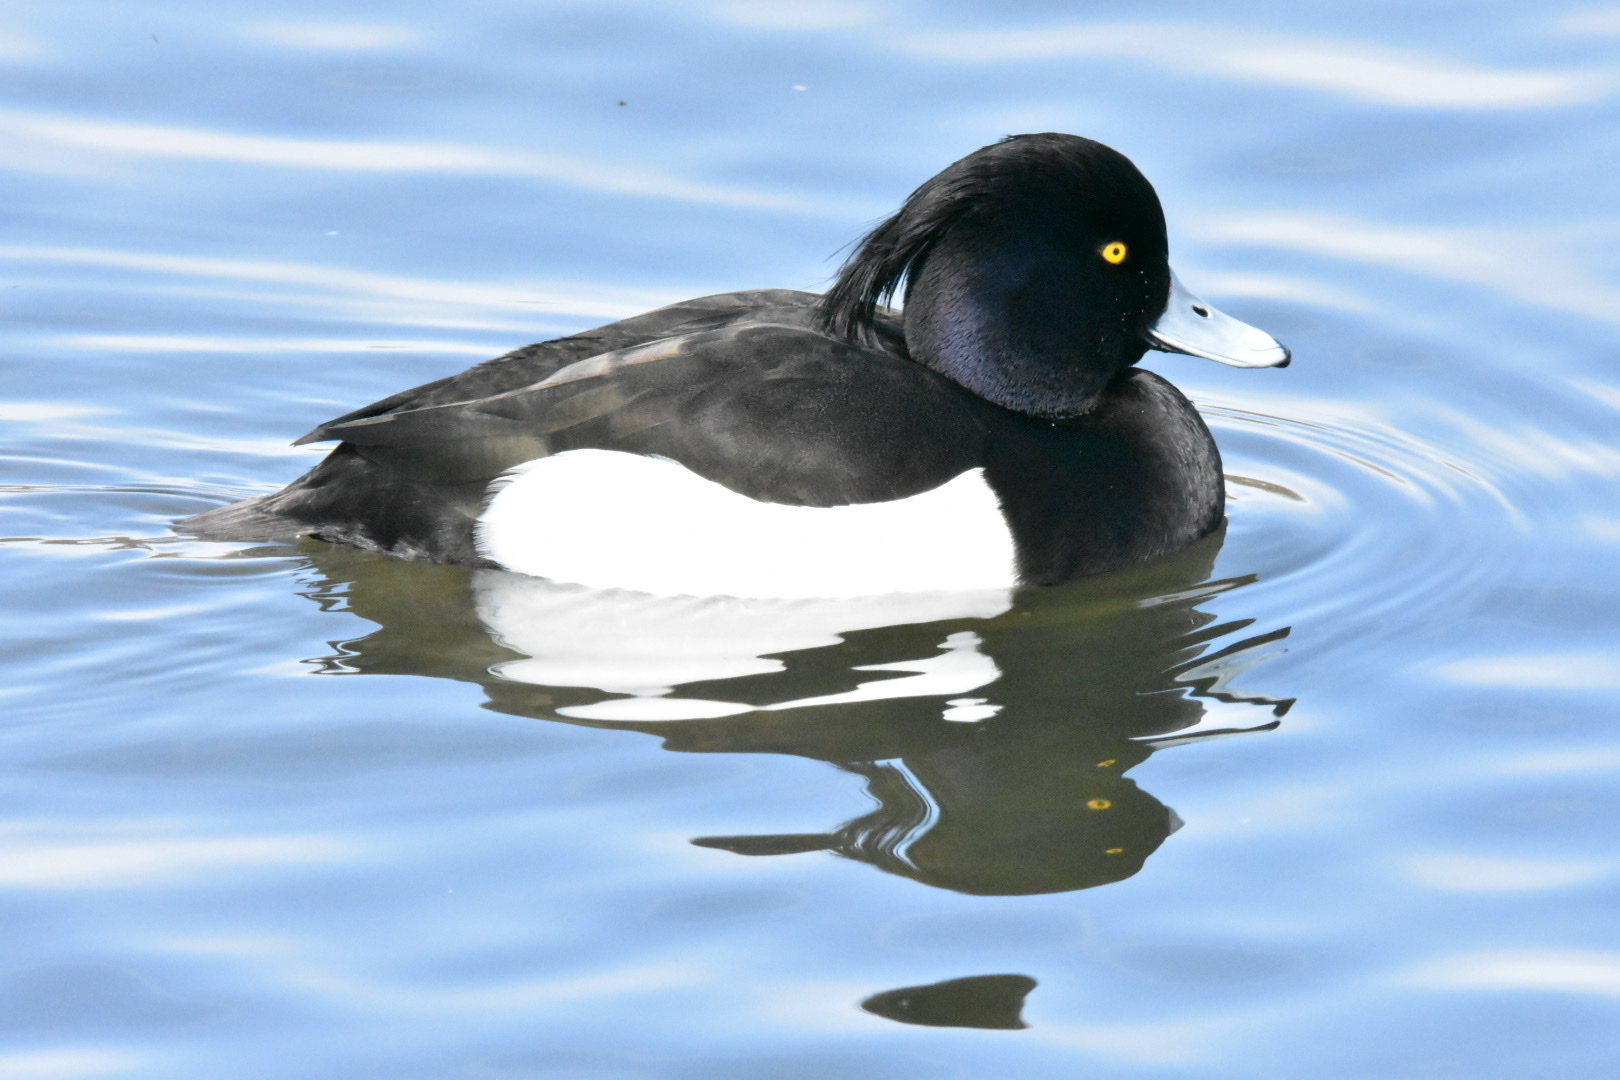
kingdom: Animalia
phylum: Chordata
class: Aves
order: Anseriformes
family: Anatidae
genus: Aythya
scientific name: Aythya fuligula
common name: Tufted duck
